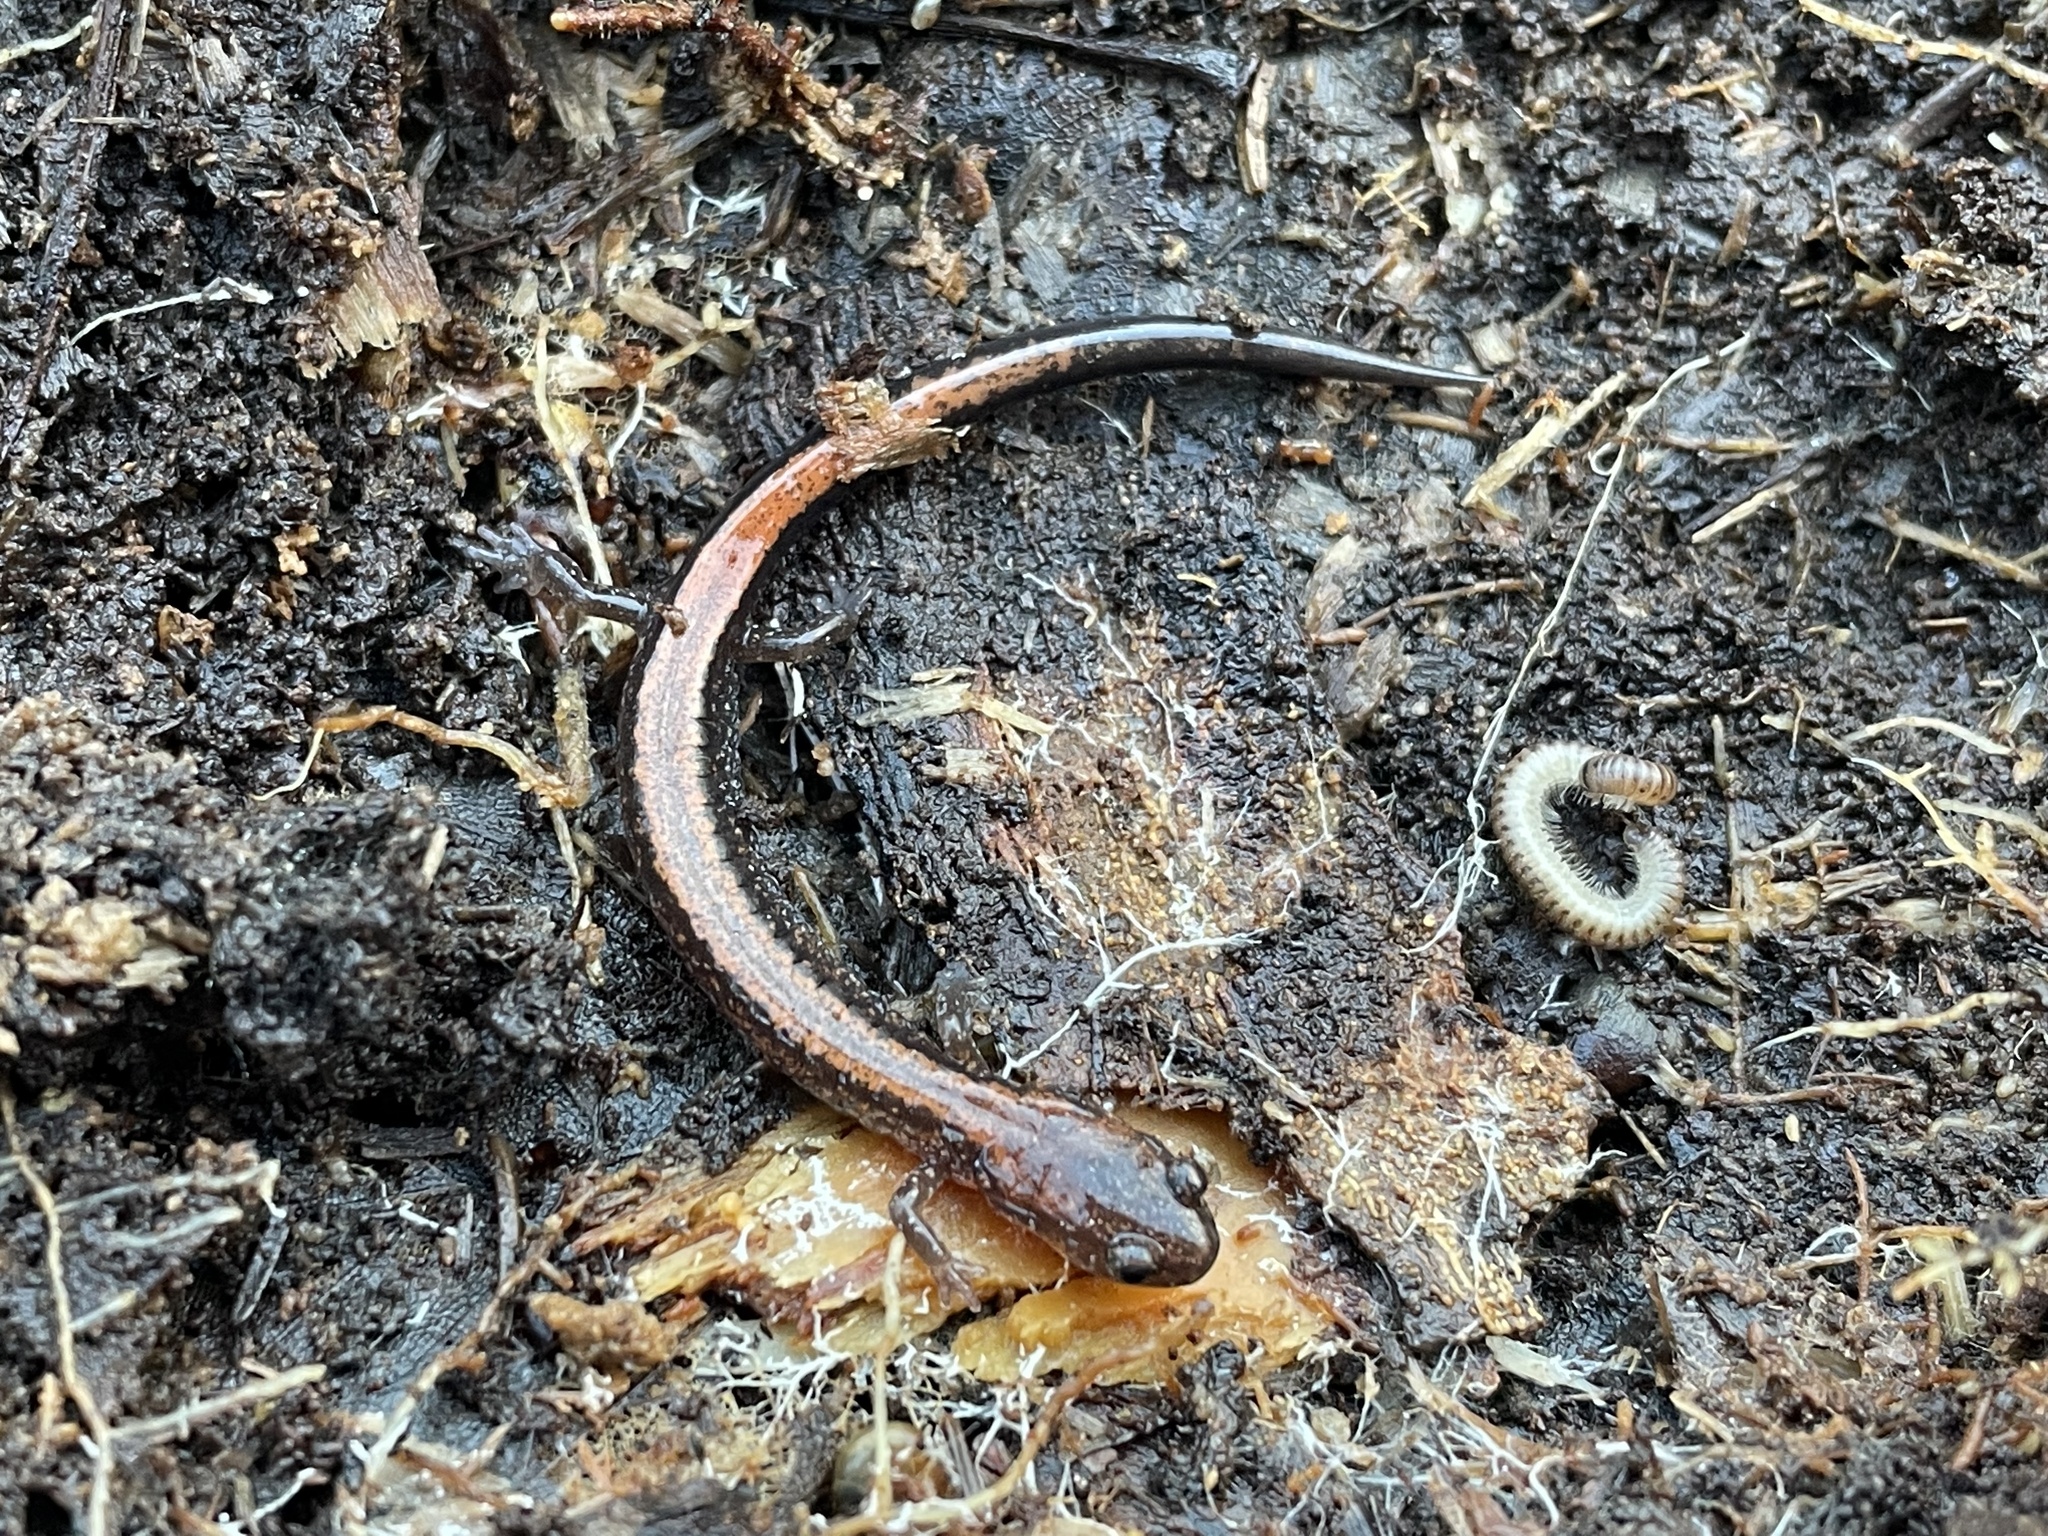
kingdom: Animalia
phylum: Chordata
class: Amphibia
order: Caudata
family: Plethodontidae
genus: Plethodon
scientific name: Plethodon cinereus
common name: Redback salamander
